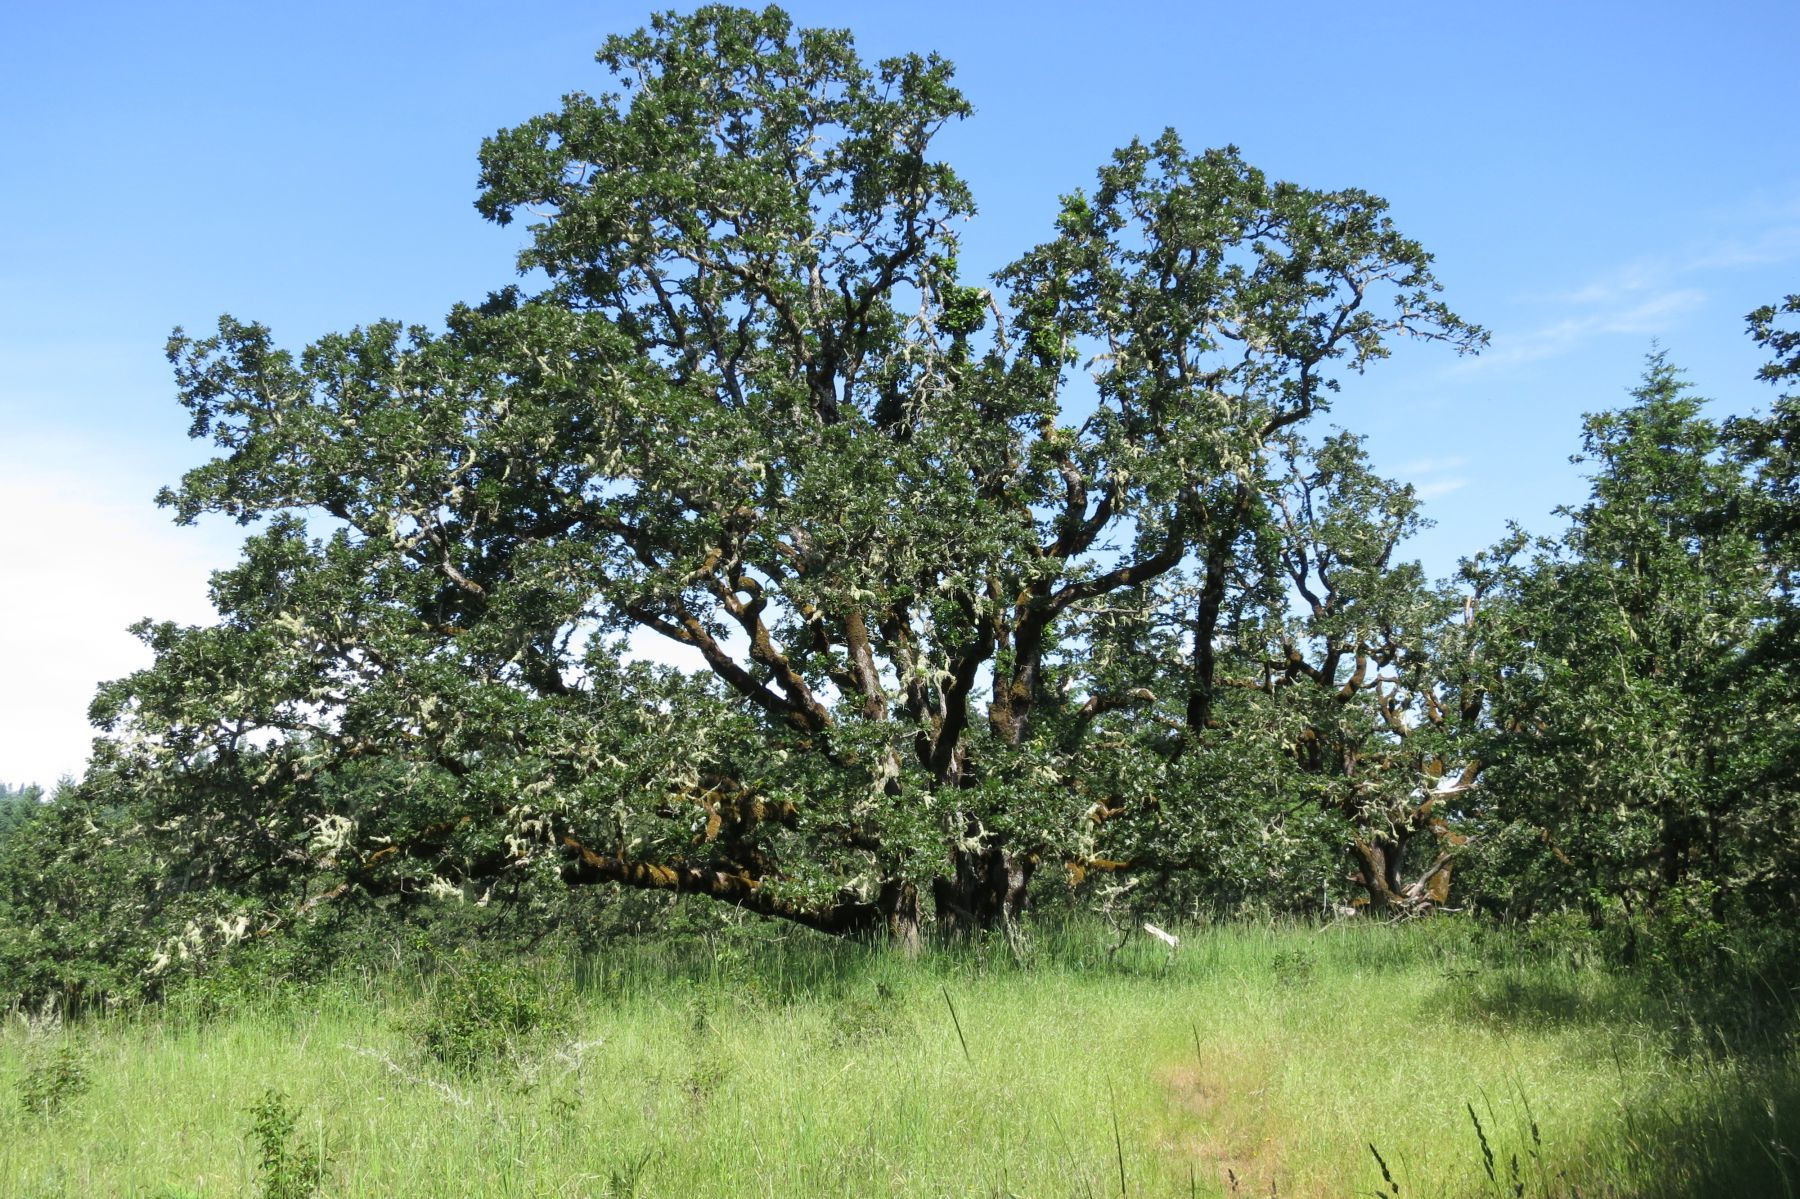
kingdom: Plantae
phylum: Tracheophyta
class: Magnoliopsida
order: Fagales
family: Fagaceae
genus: Quercus
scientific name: Quercus garryana
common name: Garry oak
